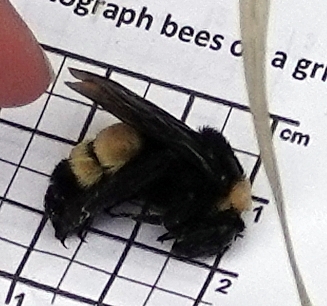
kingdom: Animalia
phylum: Arthropoda
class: Insecta
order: Hymenoptera
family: Apidae
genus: Bombus
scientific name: Bombus pensylvanicus
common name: Bumble bee
